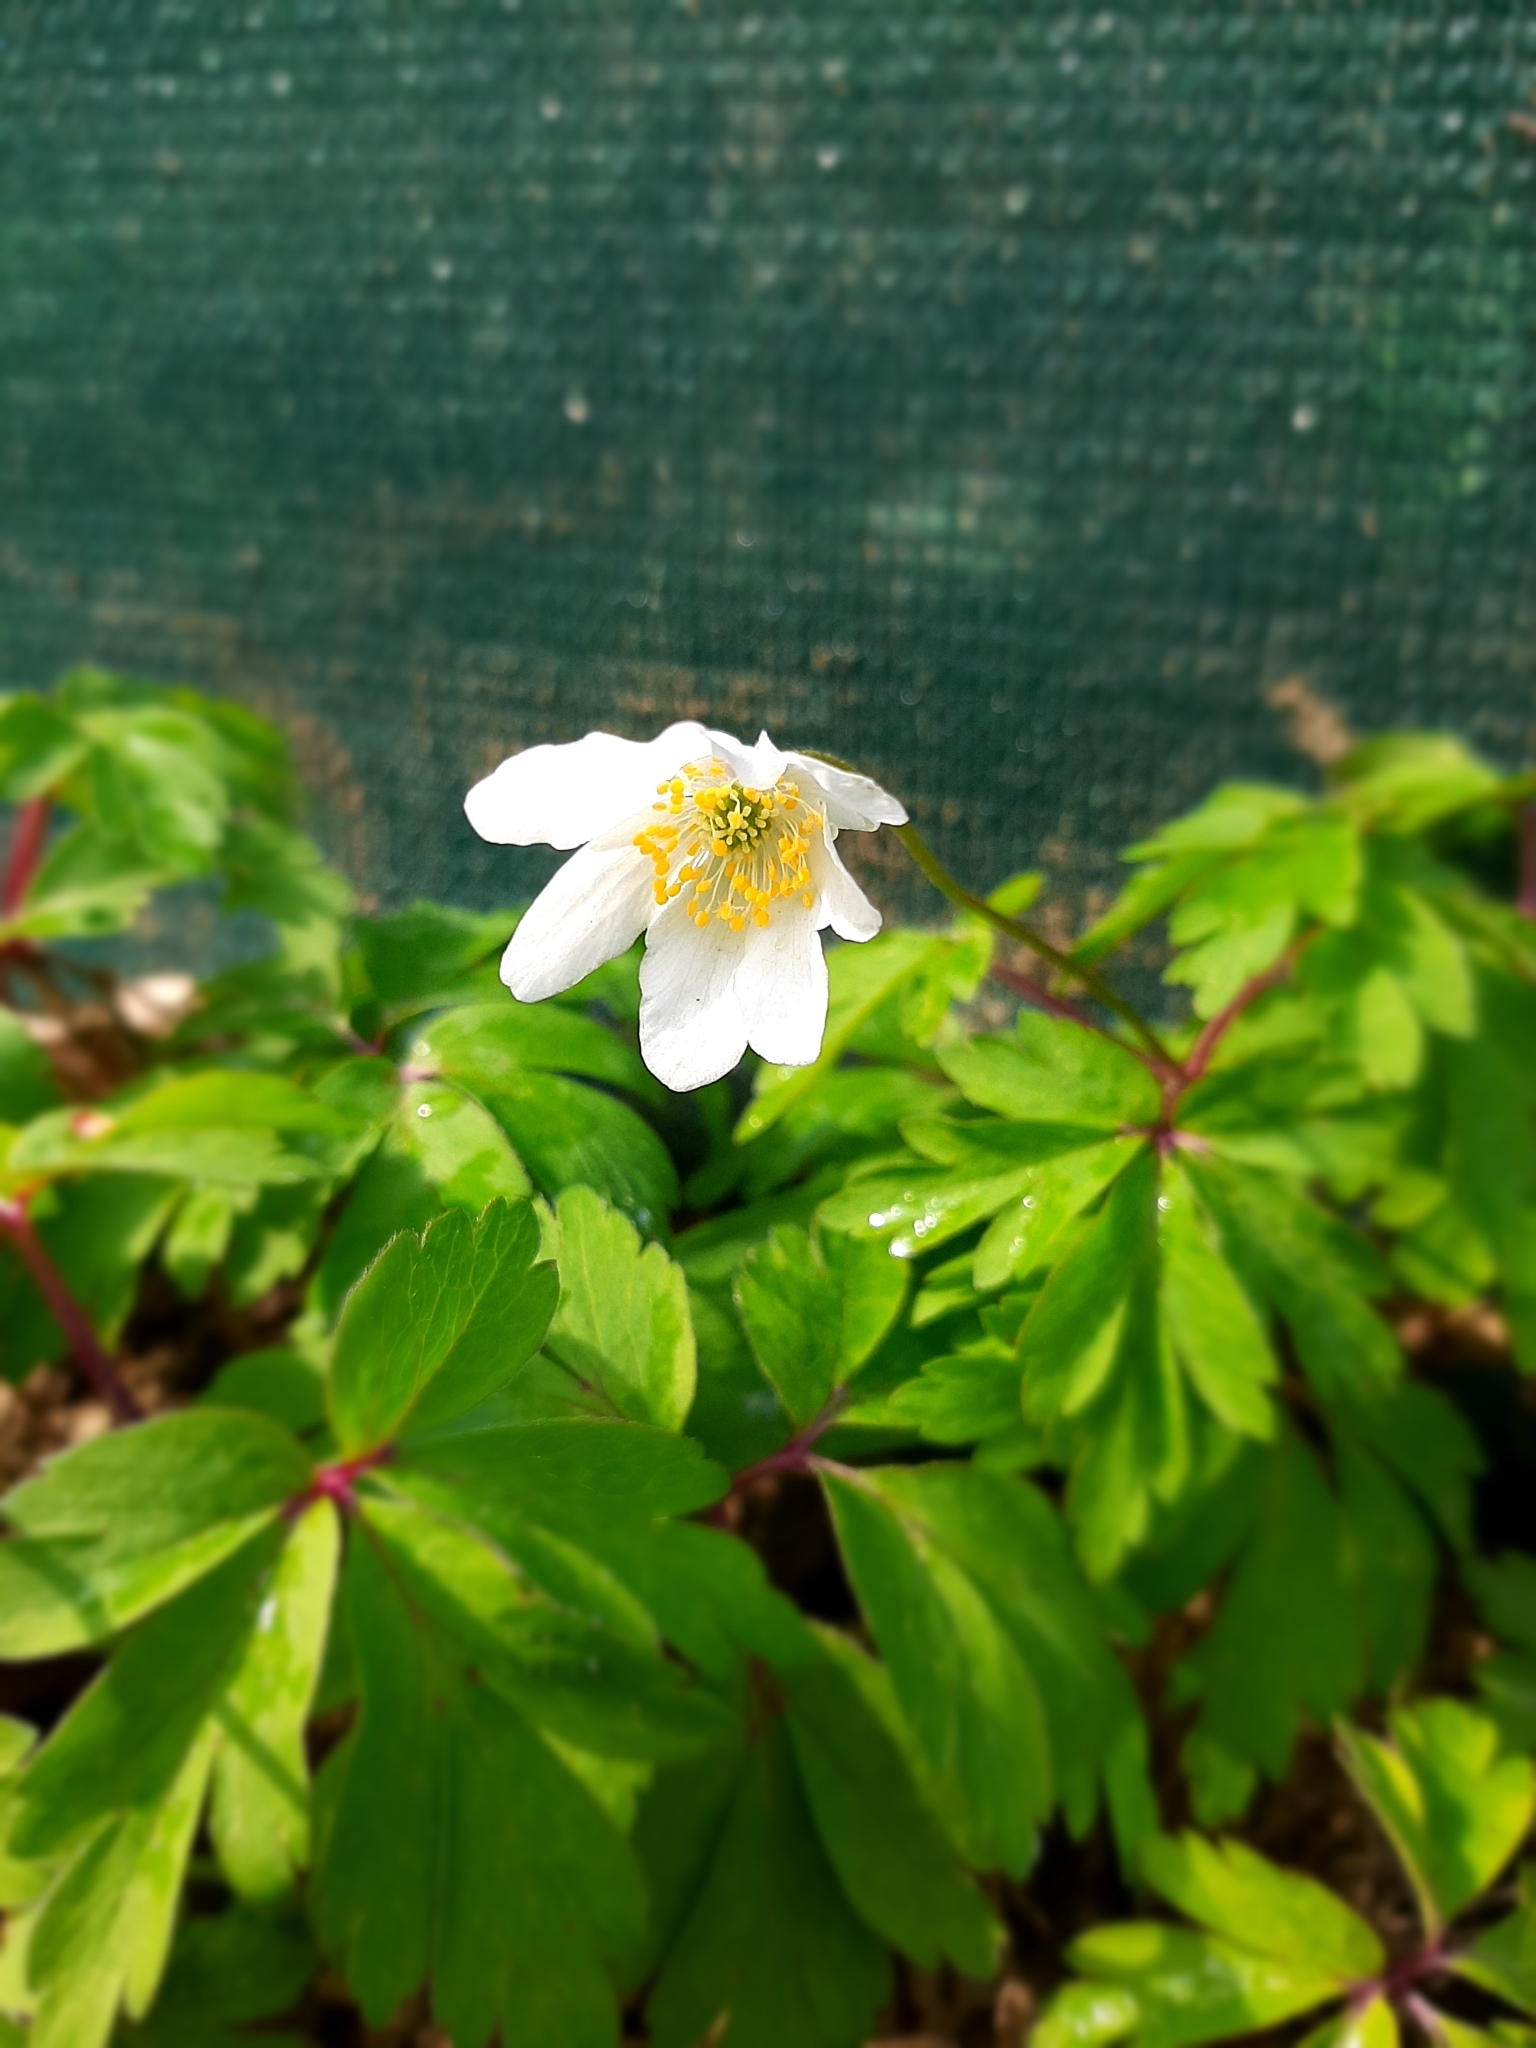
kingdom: Plantae
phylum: Tracheophyta
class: Magnoliopsida
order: Ranunculales
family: Ranunculaceae
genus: Anemone
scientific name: Anemone nemorosa
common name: Wood anemone
